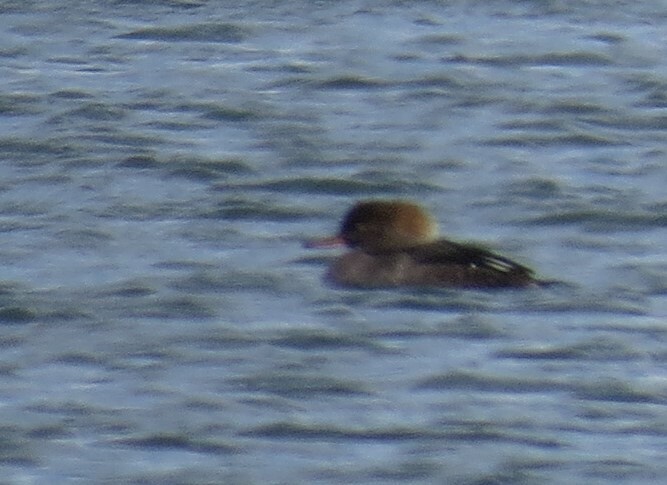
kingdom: Animalia
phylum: Chordata
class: Aves
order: Anseriformes
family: Anatidae
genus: Lophodytes
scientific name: Lophodytes cucullatus
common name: Hooded merganser
